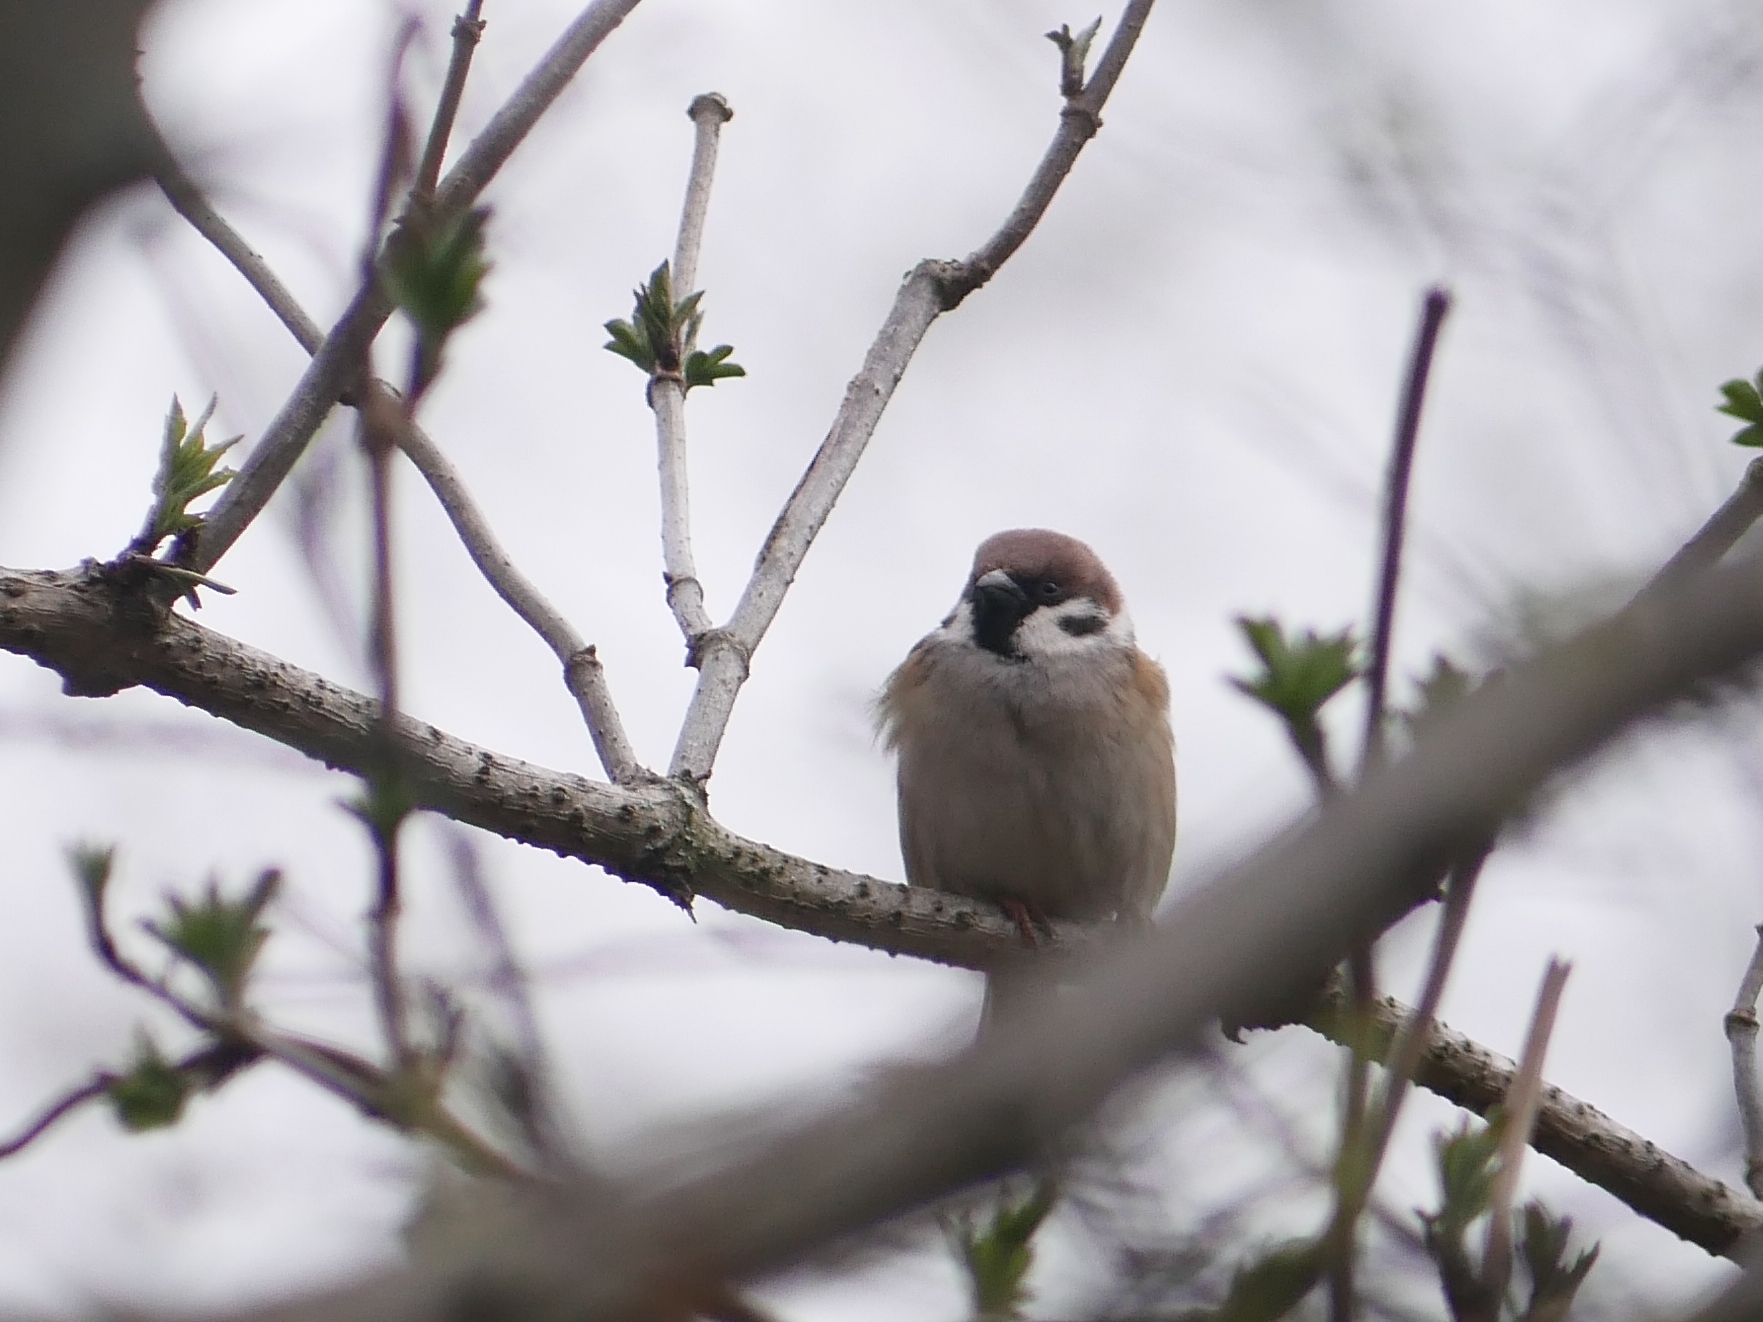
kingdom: Animalia
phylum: Chordata
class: Aves
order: Passeriformes
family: Passeridae
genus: Passer
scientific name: Passer montanus
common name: Eurasian tree sparrow
